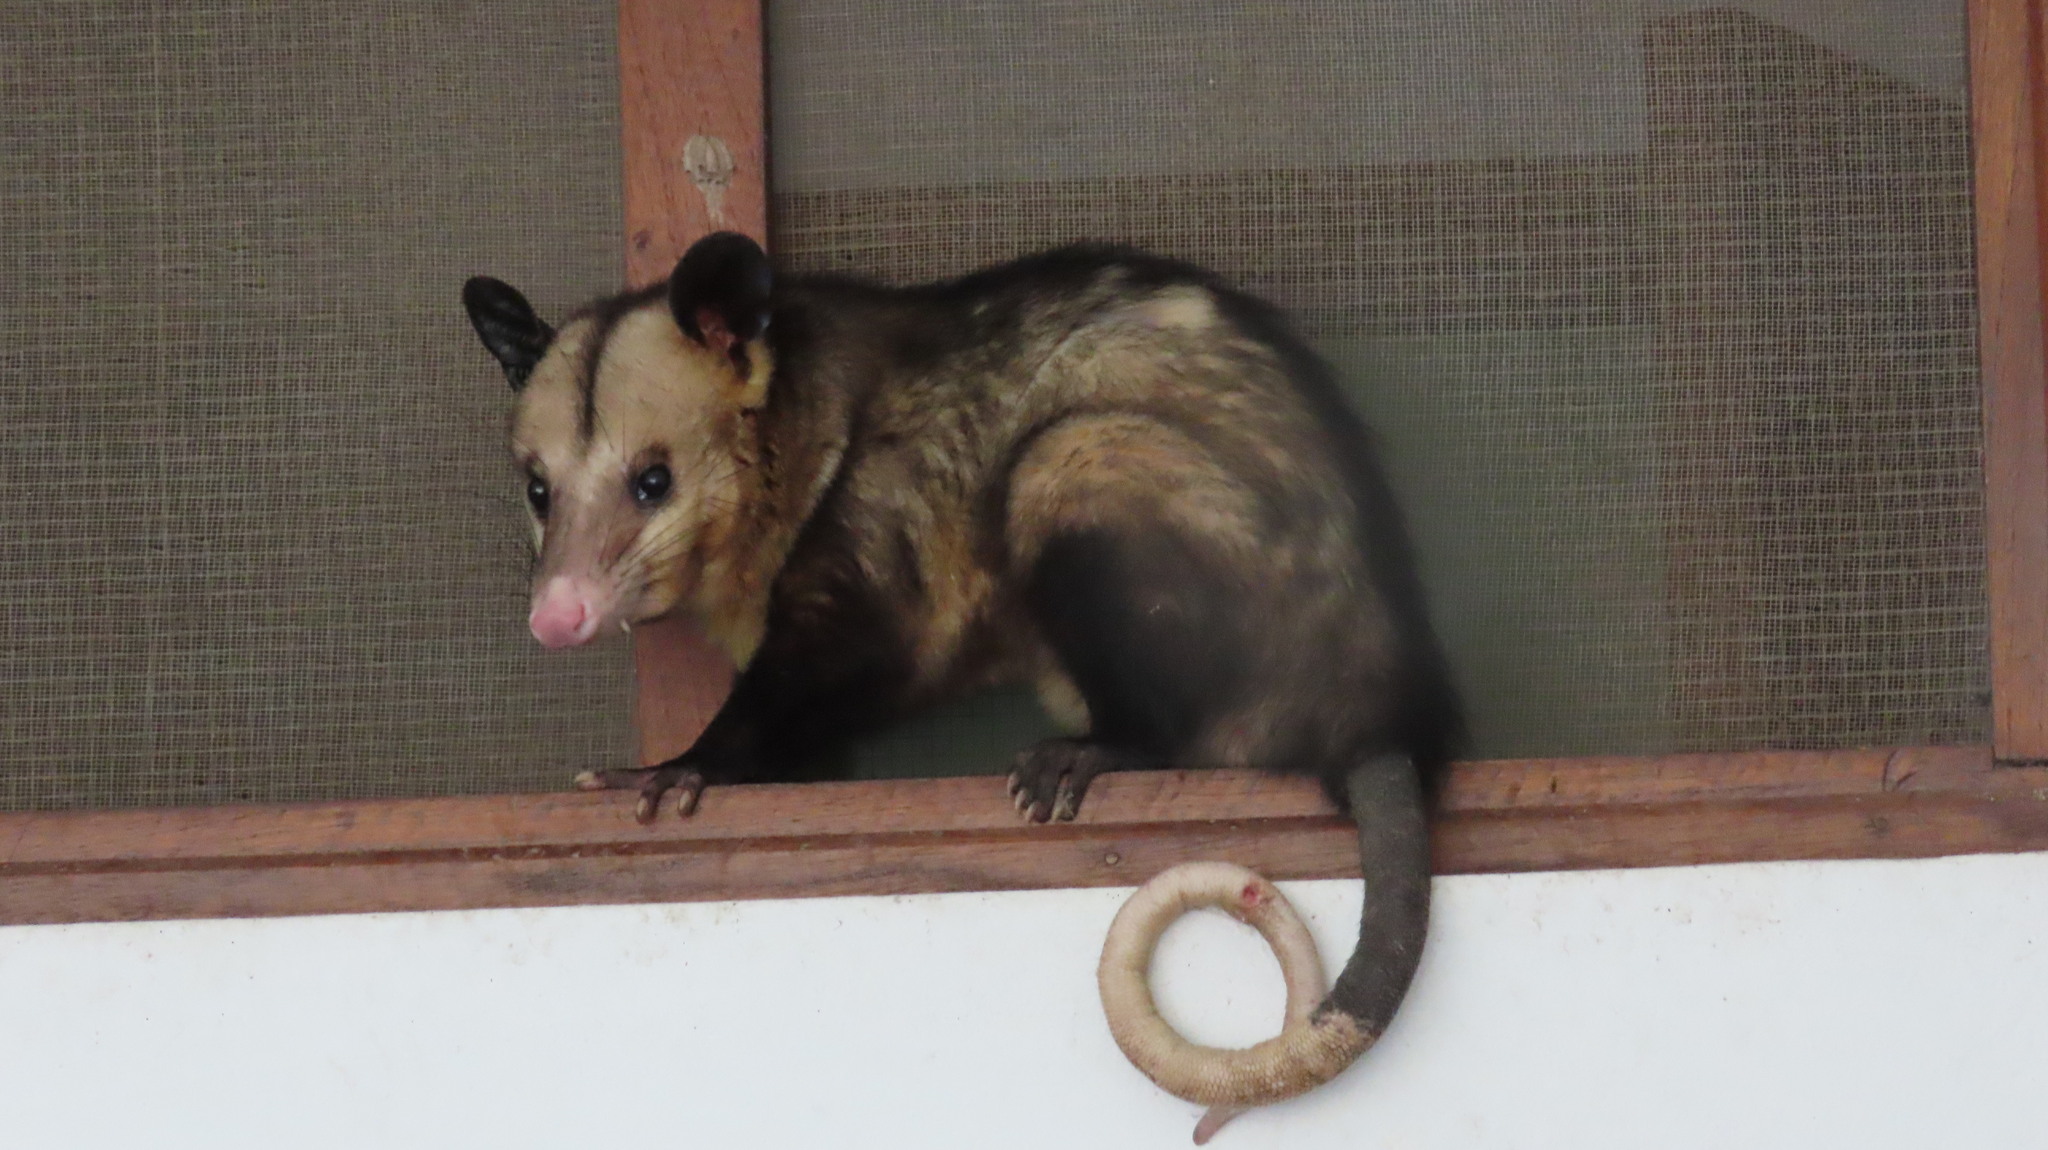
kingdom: Animalia
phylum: Chordata
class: Mammalia
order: Didelphimorphia
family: Didelphidae
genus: Didelphis
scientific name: Didelphis marsupialis
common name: Common opossum
